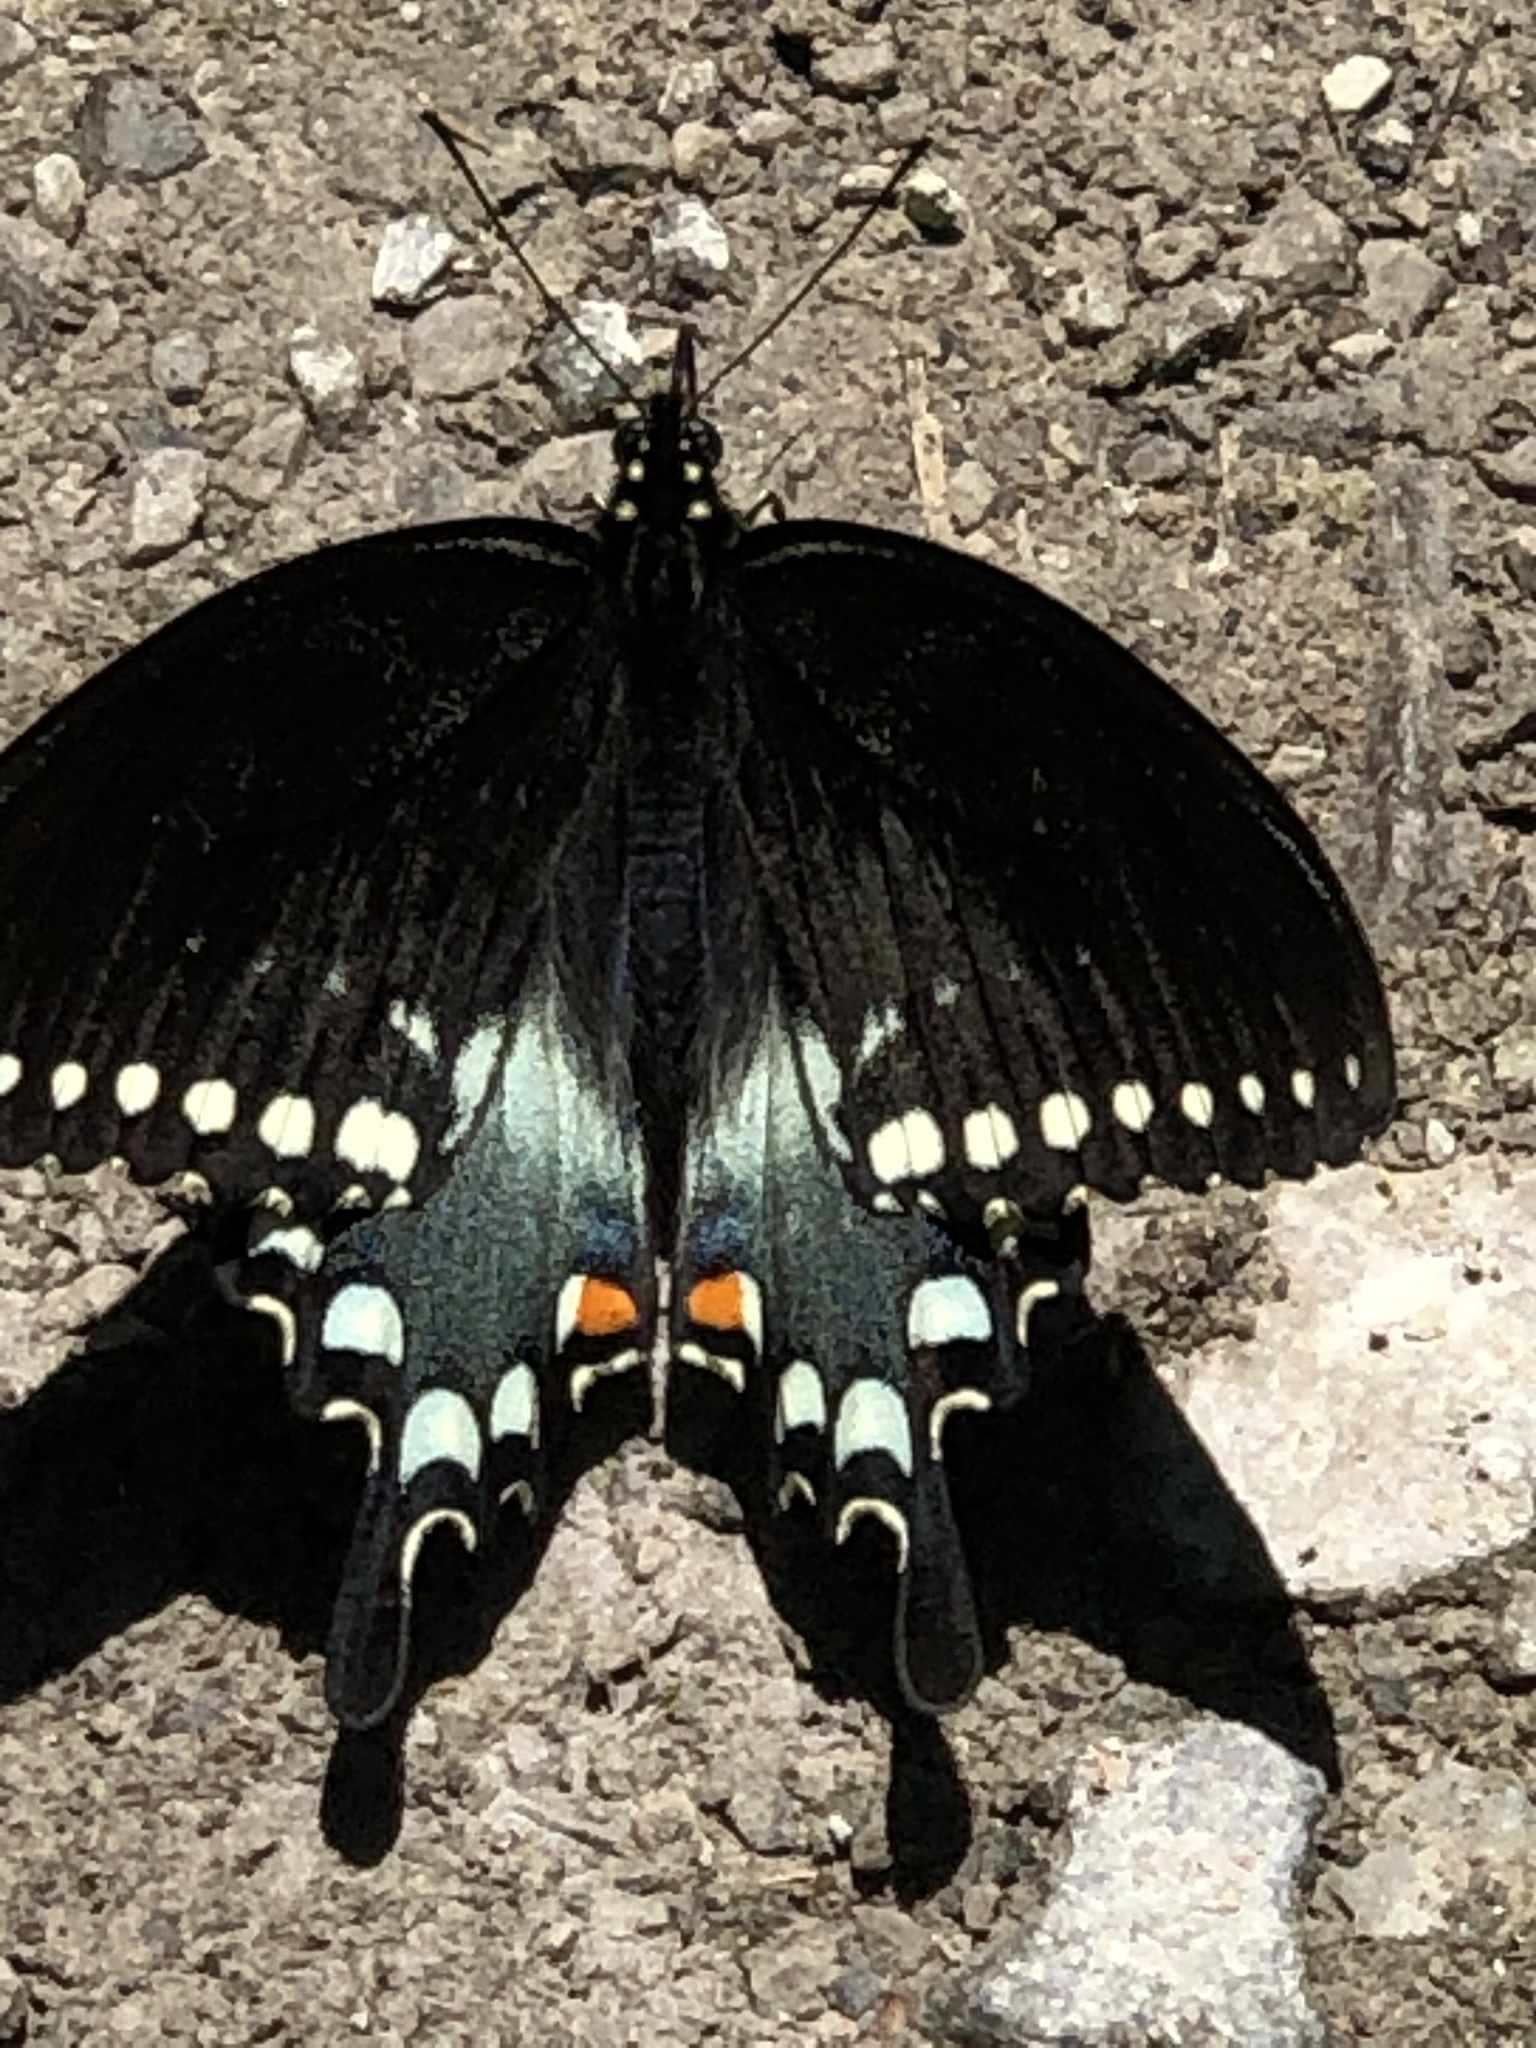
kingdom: Animalia
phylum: Arthropoda
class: Insecta
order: Lepidoptera
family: Papilionidae
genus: Papilio
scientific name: Papilio troilus
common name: Spicebush swallowtail
